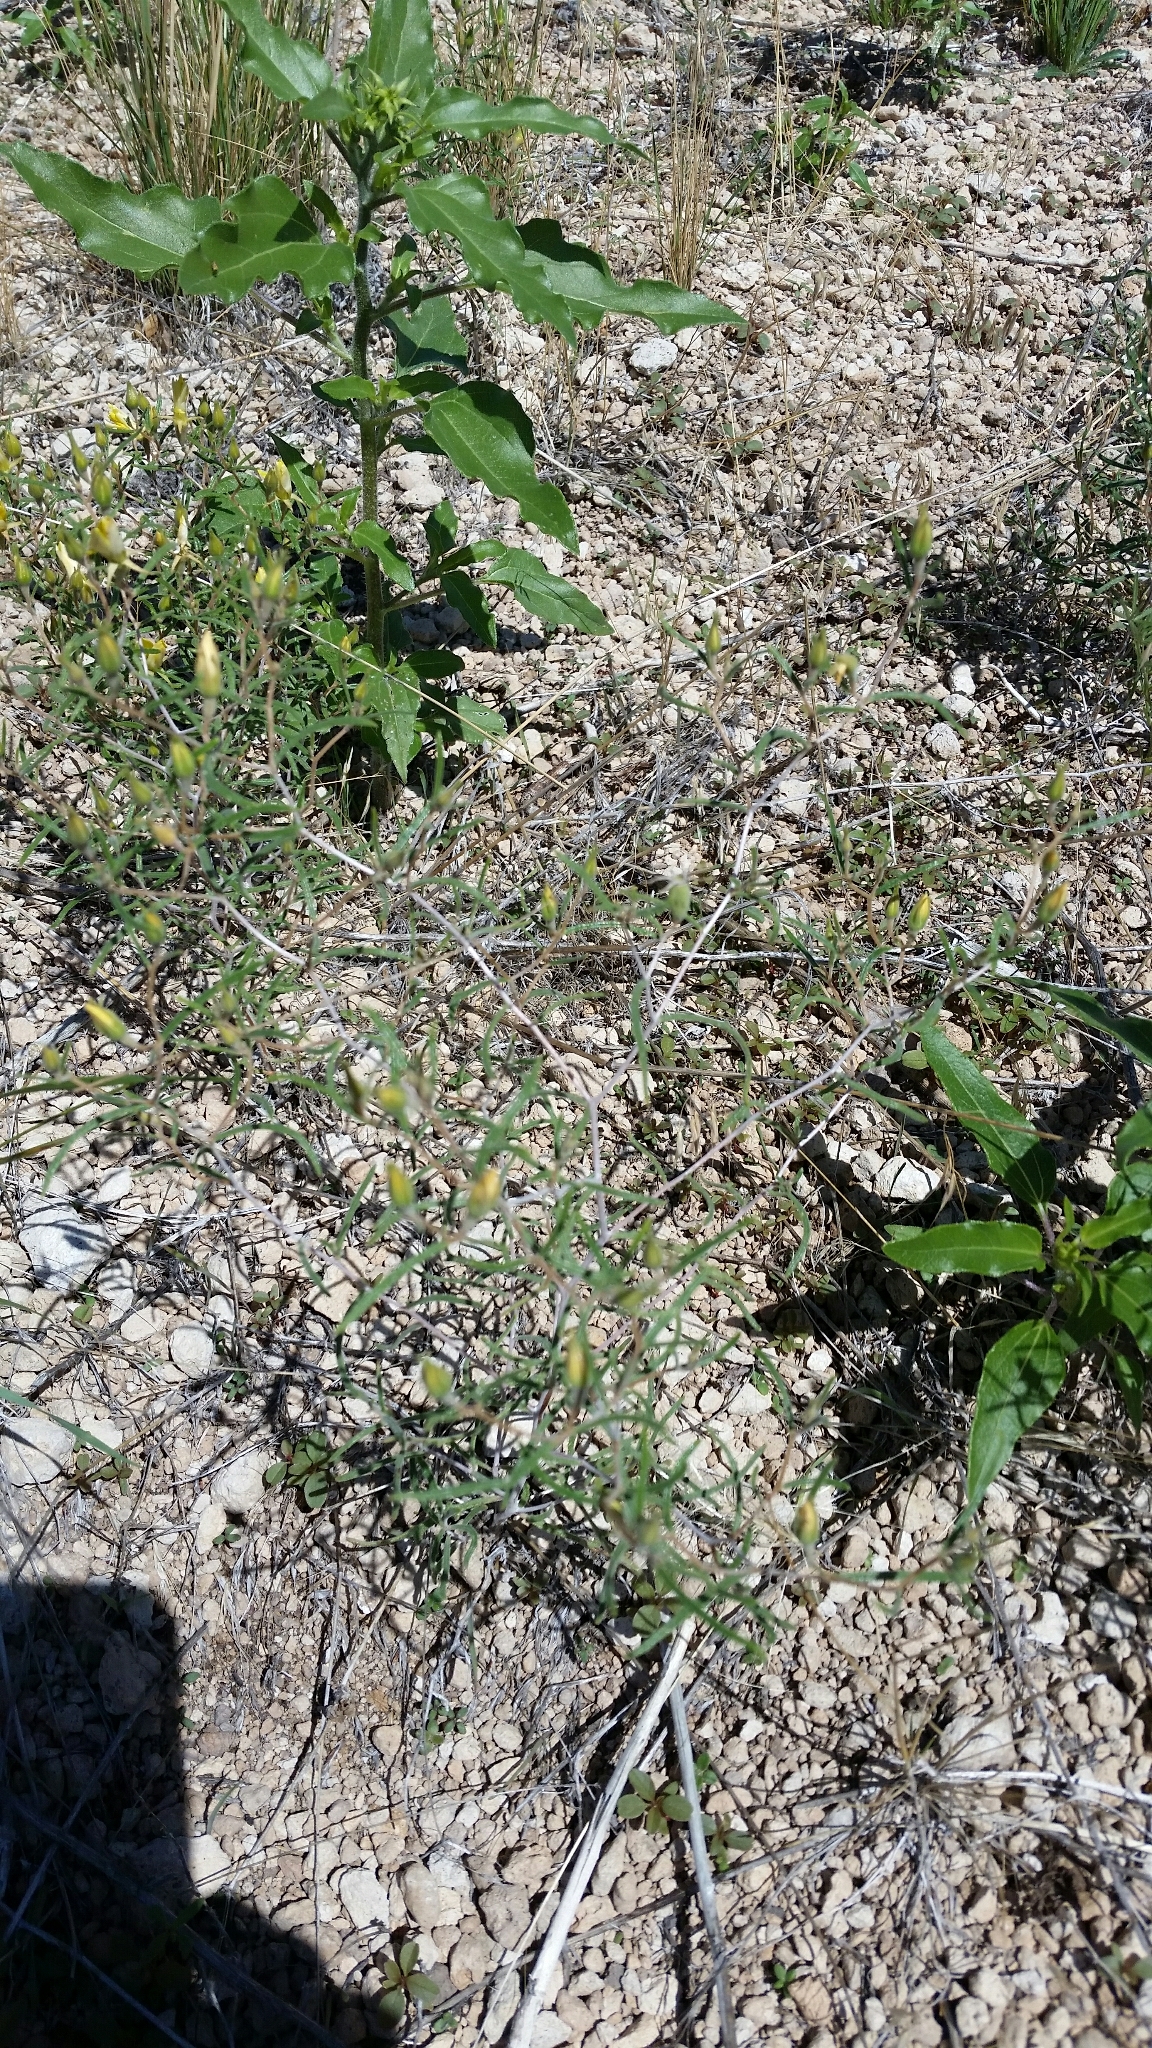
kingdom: Plantae
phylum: Tracheophyta
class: Magnoliopsida
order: Cornales
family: Loasaceae
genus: Mentzelia
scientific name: Mentzelia springeri
